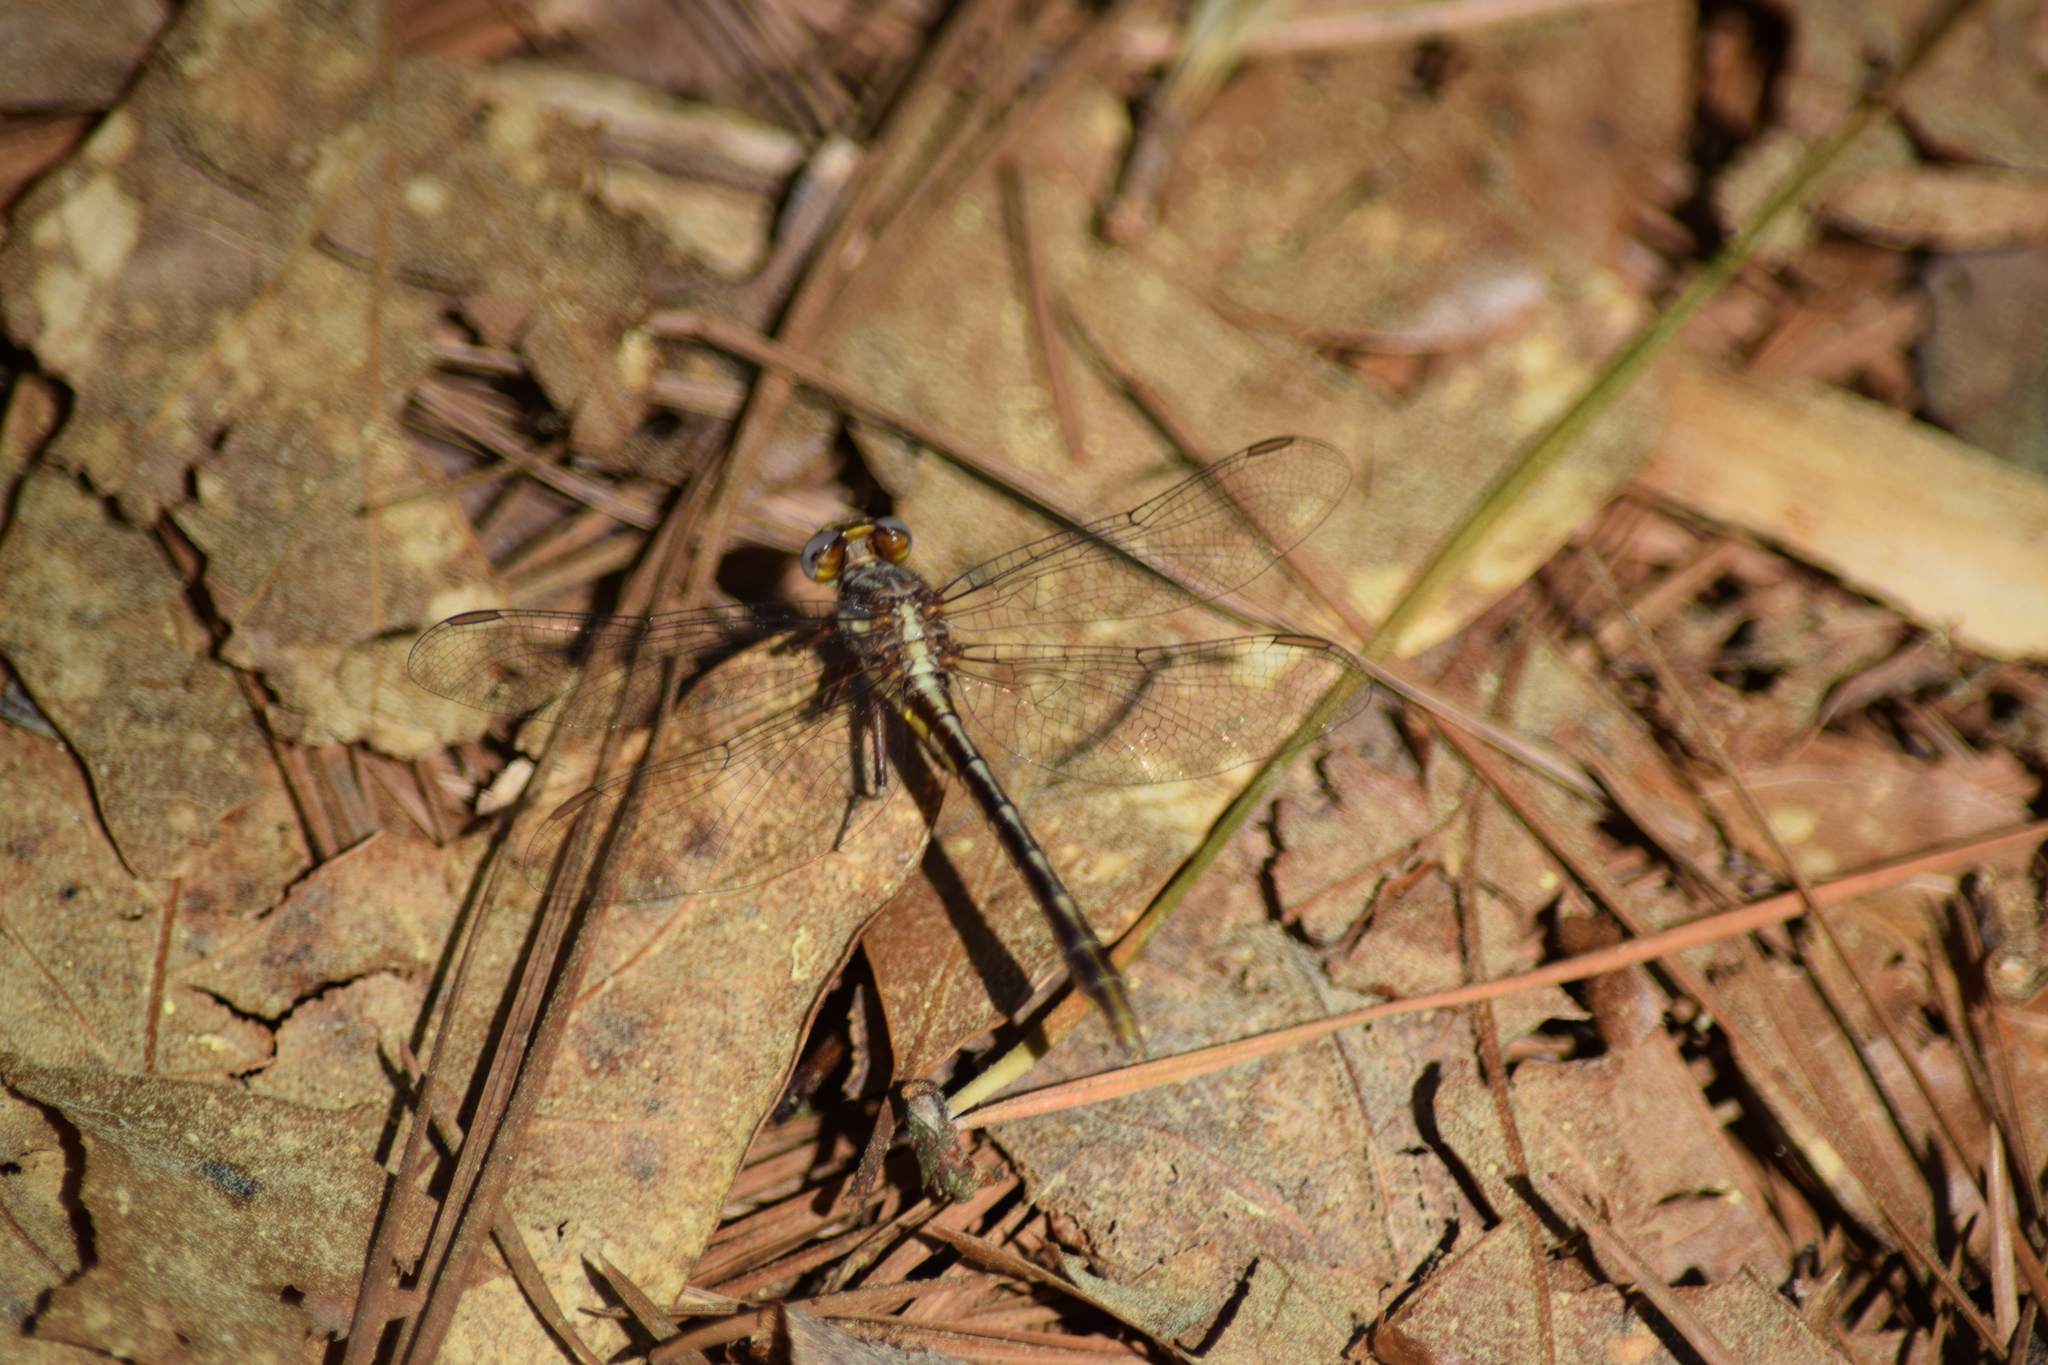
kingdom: Animalia
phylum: Arthropoda
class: Insecta
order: Odonata
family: Gomphidae
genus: Phanogomphus
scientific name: Phanogomphus lividus
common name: Ashy clubtail
